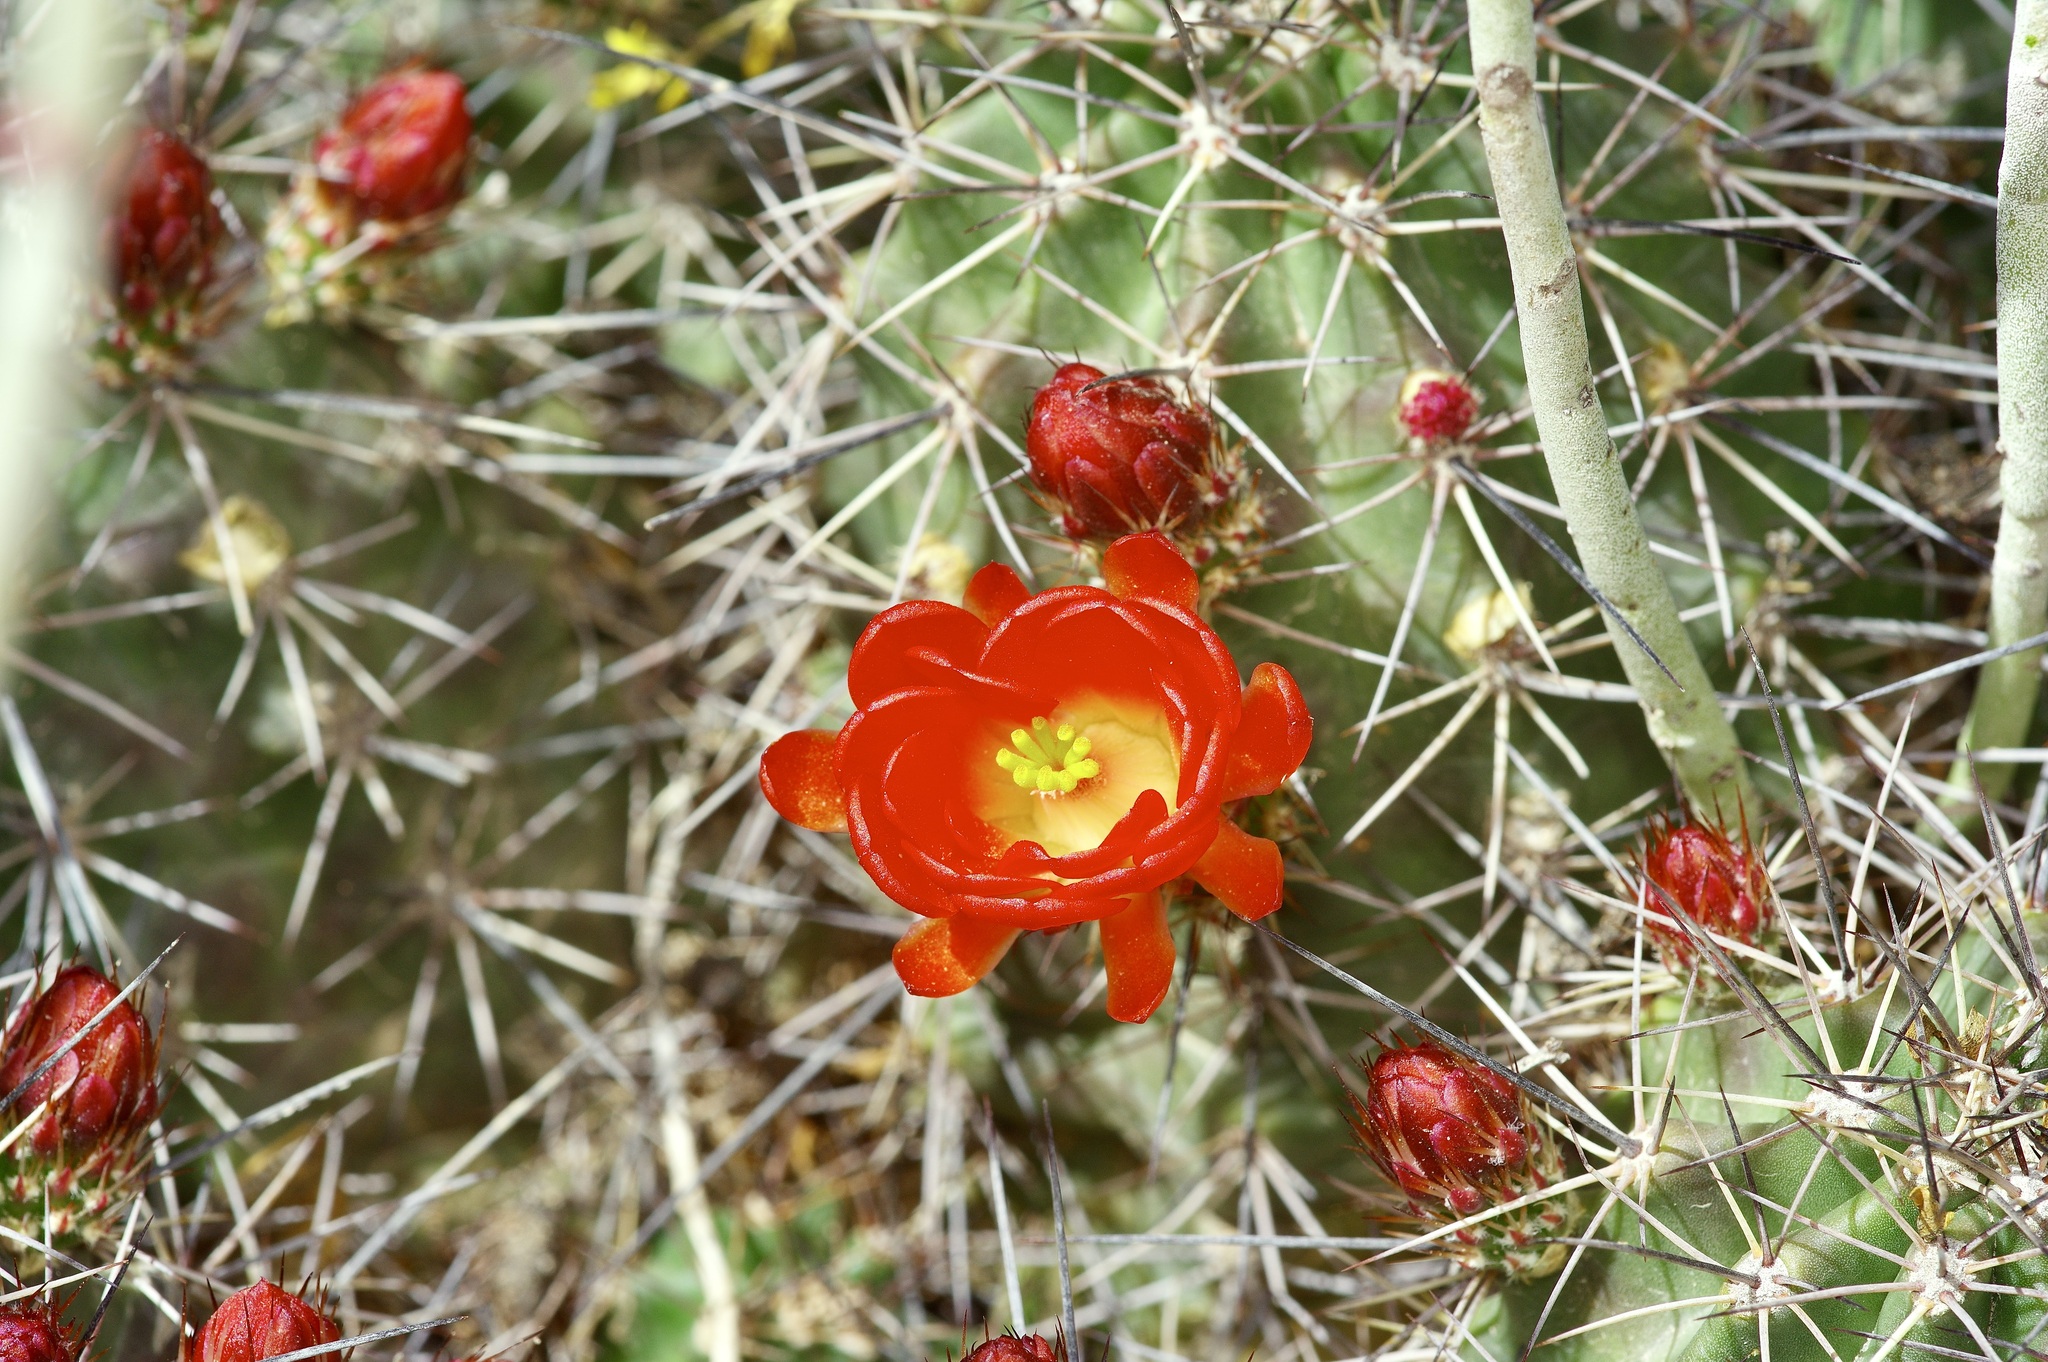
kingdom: Plantae
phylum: Tracheophyta
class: Magnoliopsida
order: Caryophyllales
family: Cactaceae
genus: Echinocereus
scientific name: Echinocereus coccineus
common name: Scarlet hedgehog cactus
